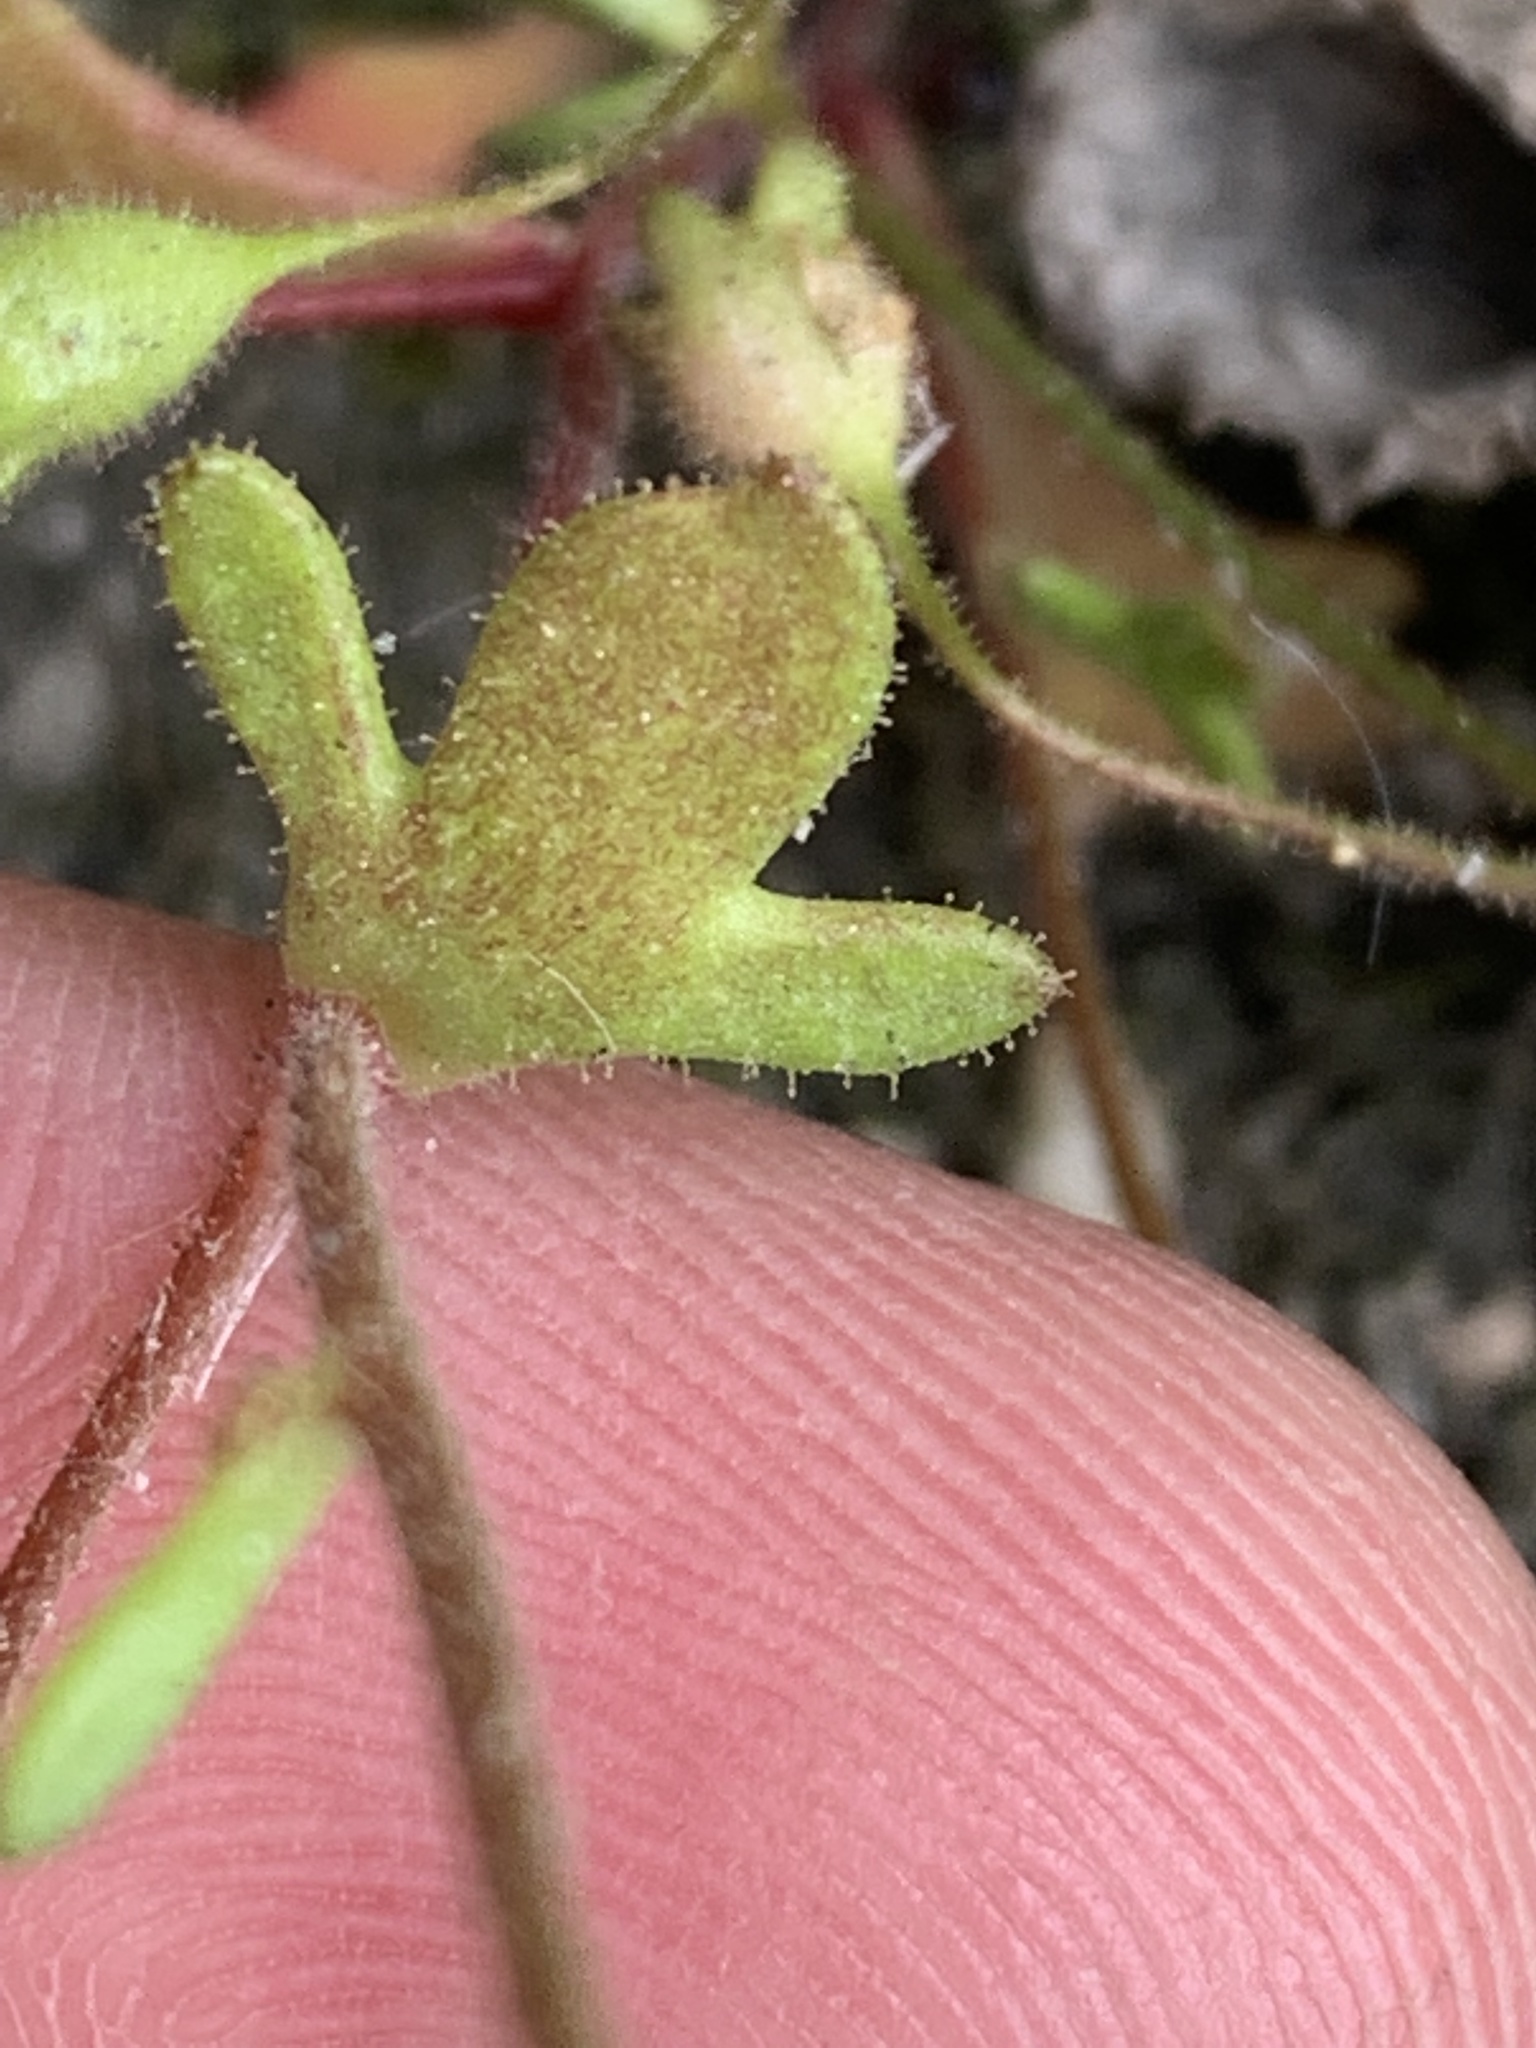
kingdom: Plantae
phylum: Tracheophyta
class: Magnoliopsida
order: Saxifragales
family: Saxifragaceae
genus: Saxifraga
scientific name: Saxifraga tridactylites
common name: Rue-leaved saxifrage
